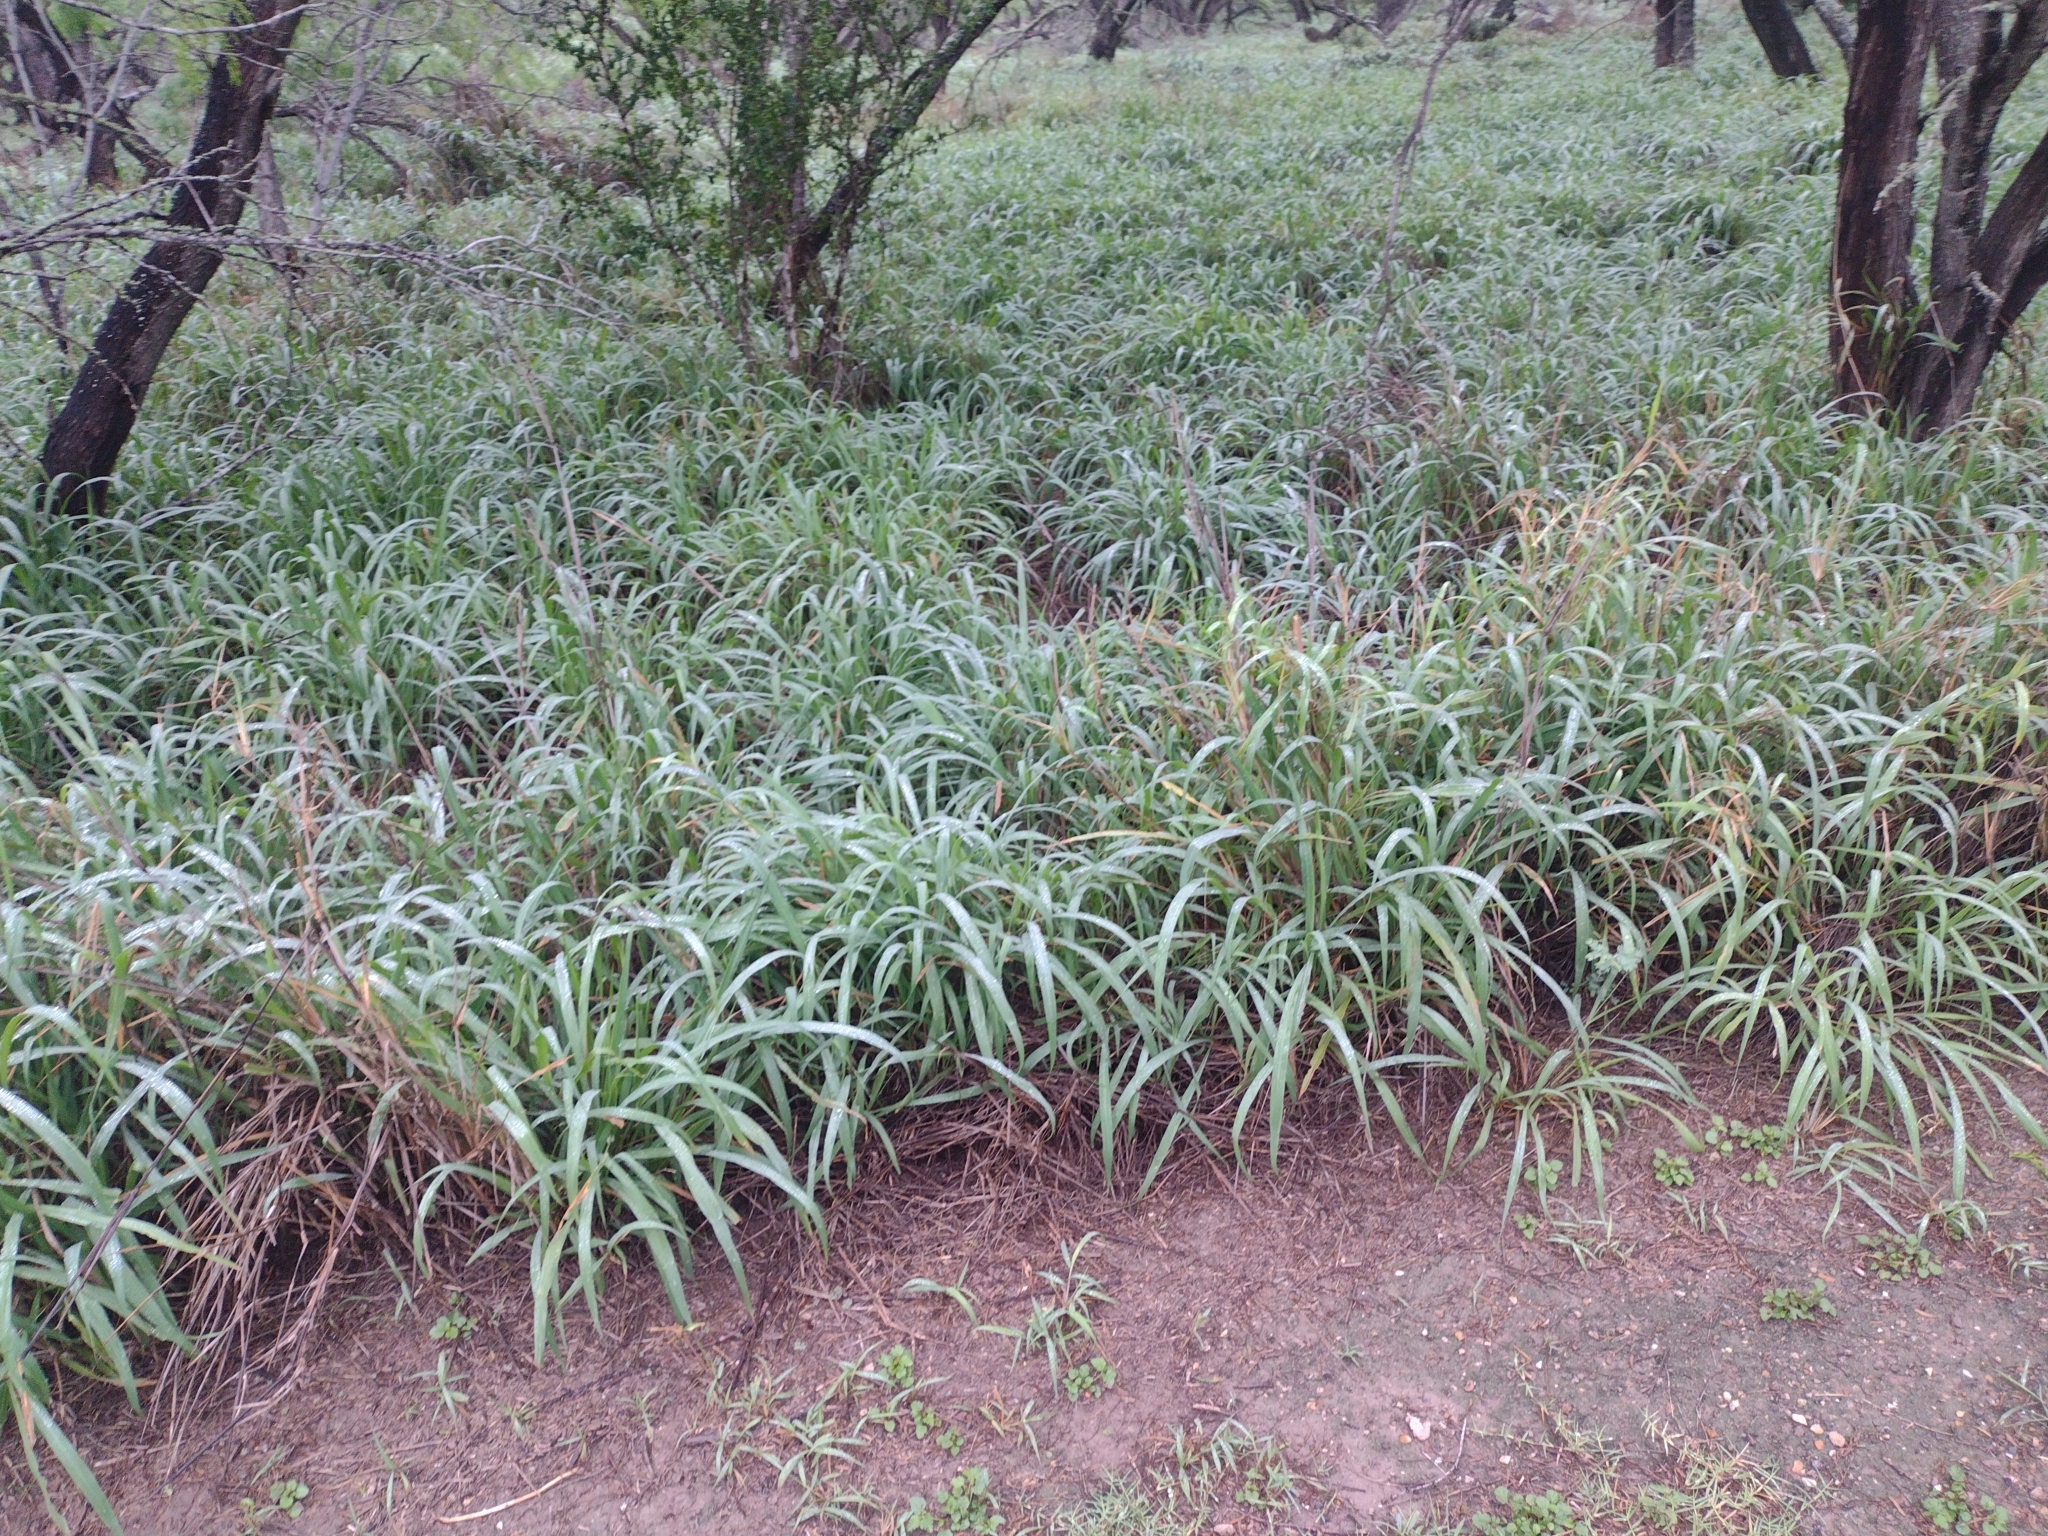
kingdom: Plantae
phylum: Tracheophyta
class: Liliopsida
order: Poales
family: Poaceae
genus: Megathyrsus
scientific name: Megathyrsus maximus
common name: Guineagrass
